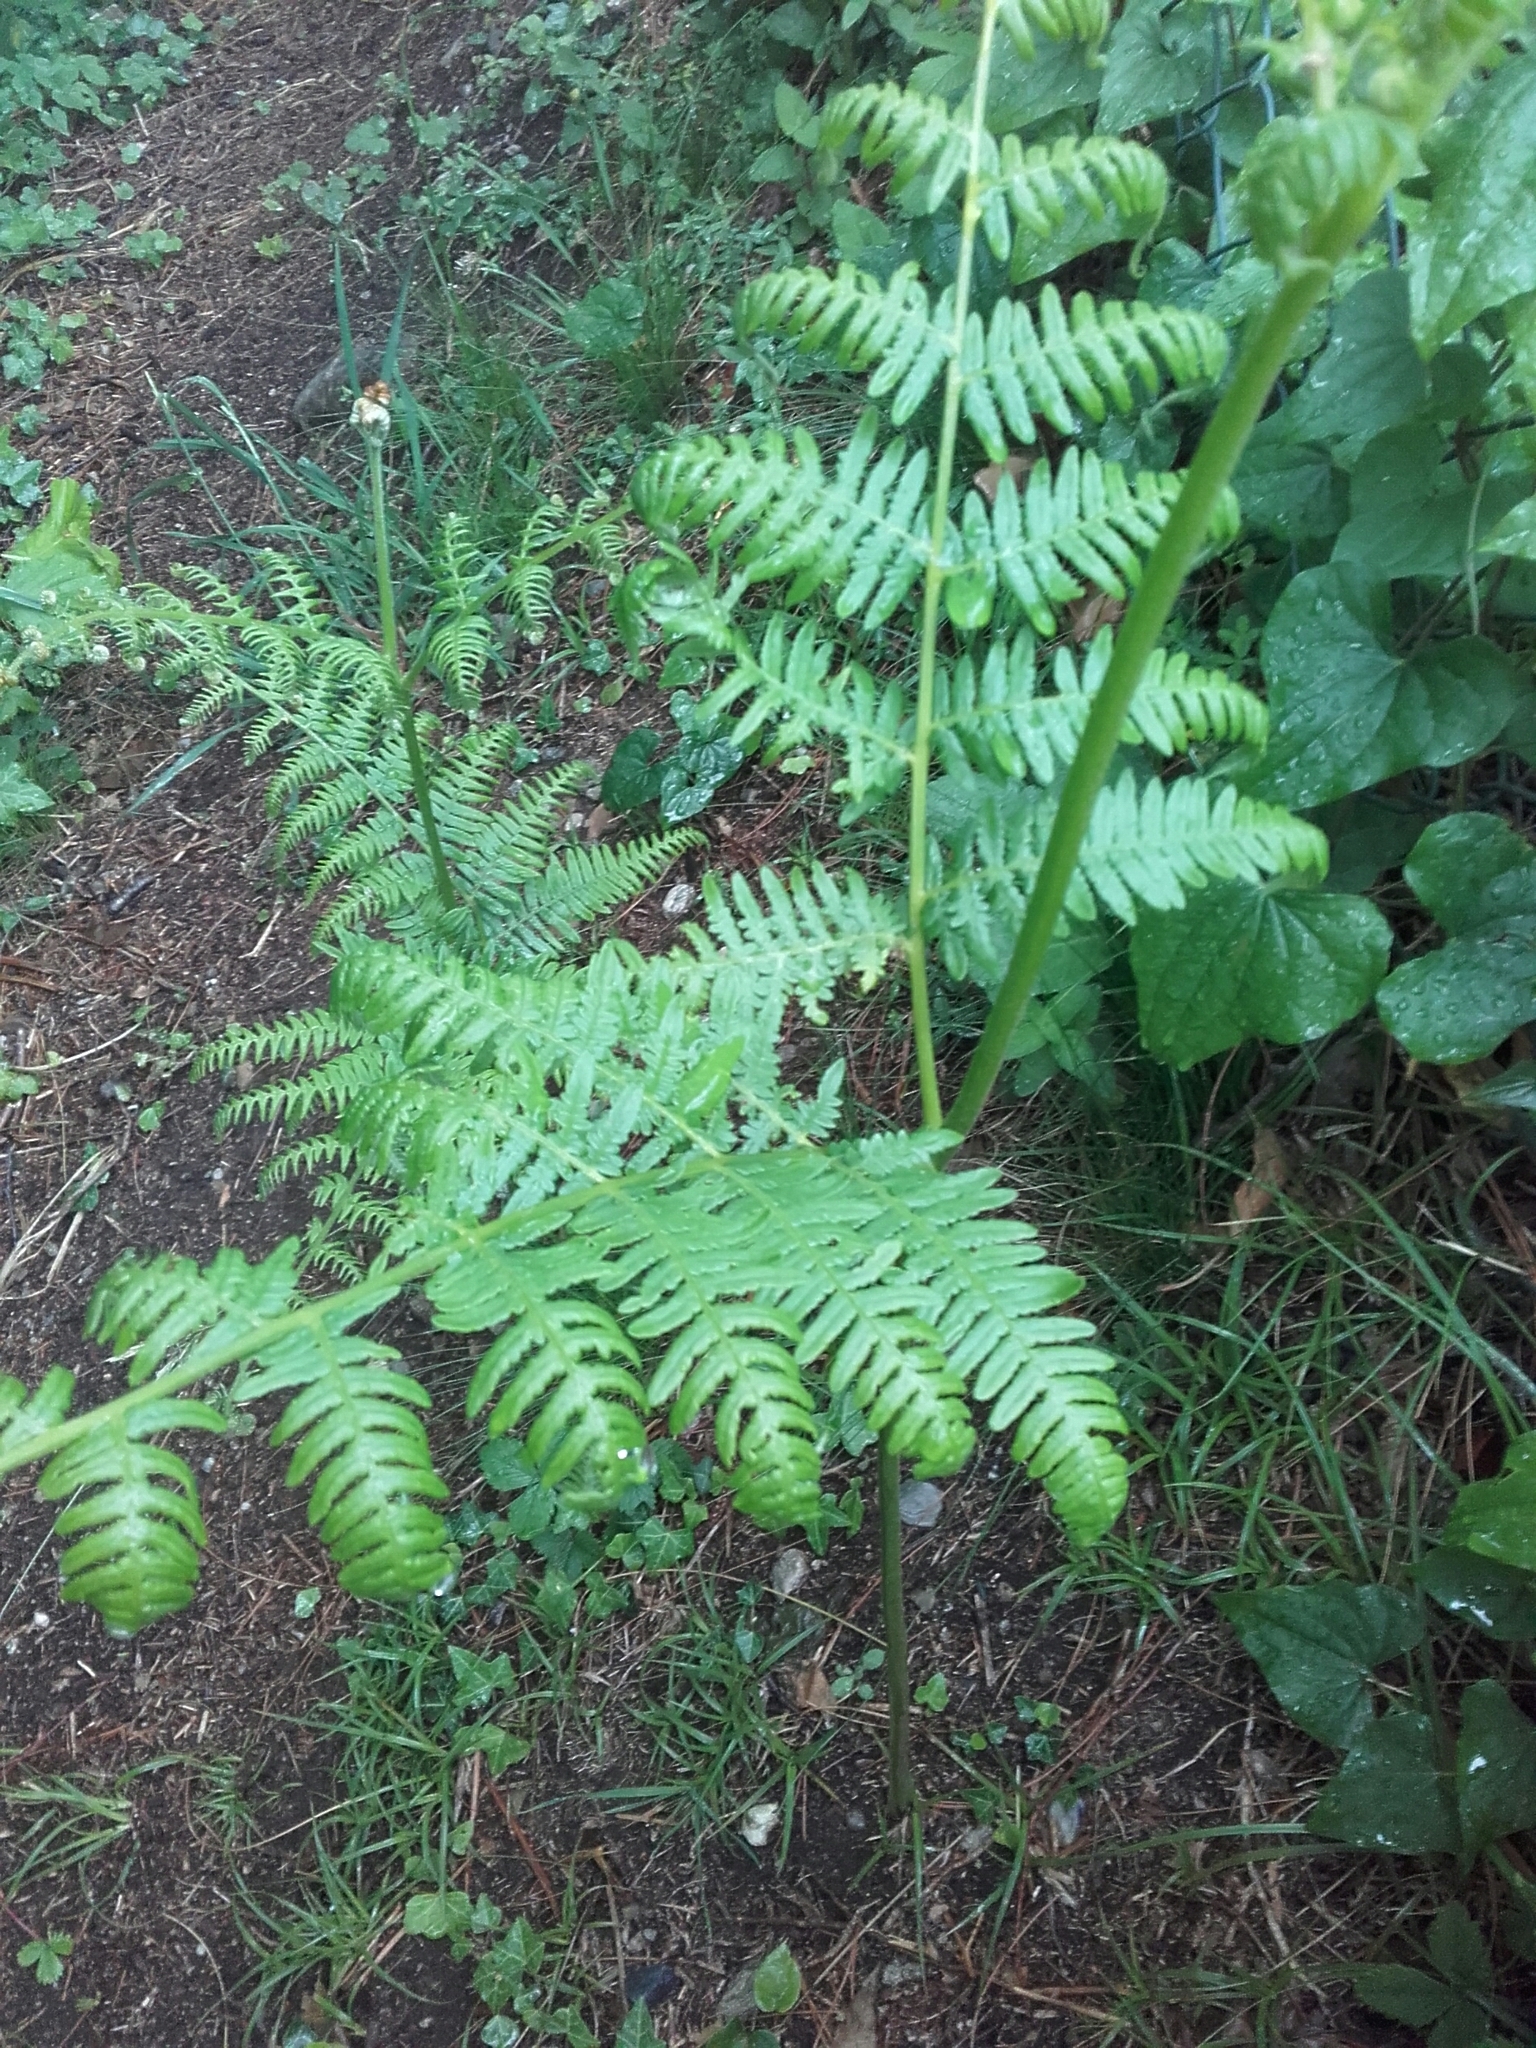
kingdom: Plantae
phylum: Tracheophyta
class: Polypodiopsida
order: Polypodiales
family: Dennstaedtiaceae
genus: Pteridium
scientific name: Pteridium aquilinum
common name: Bracken
